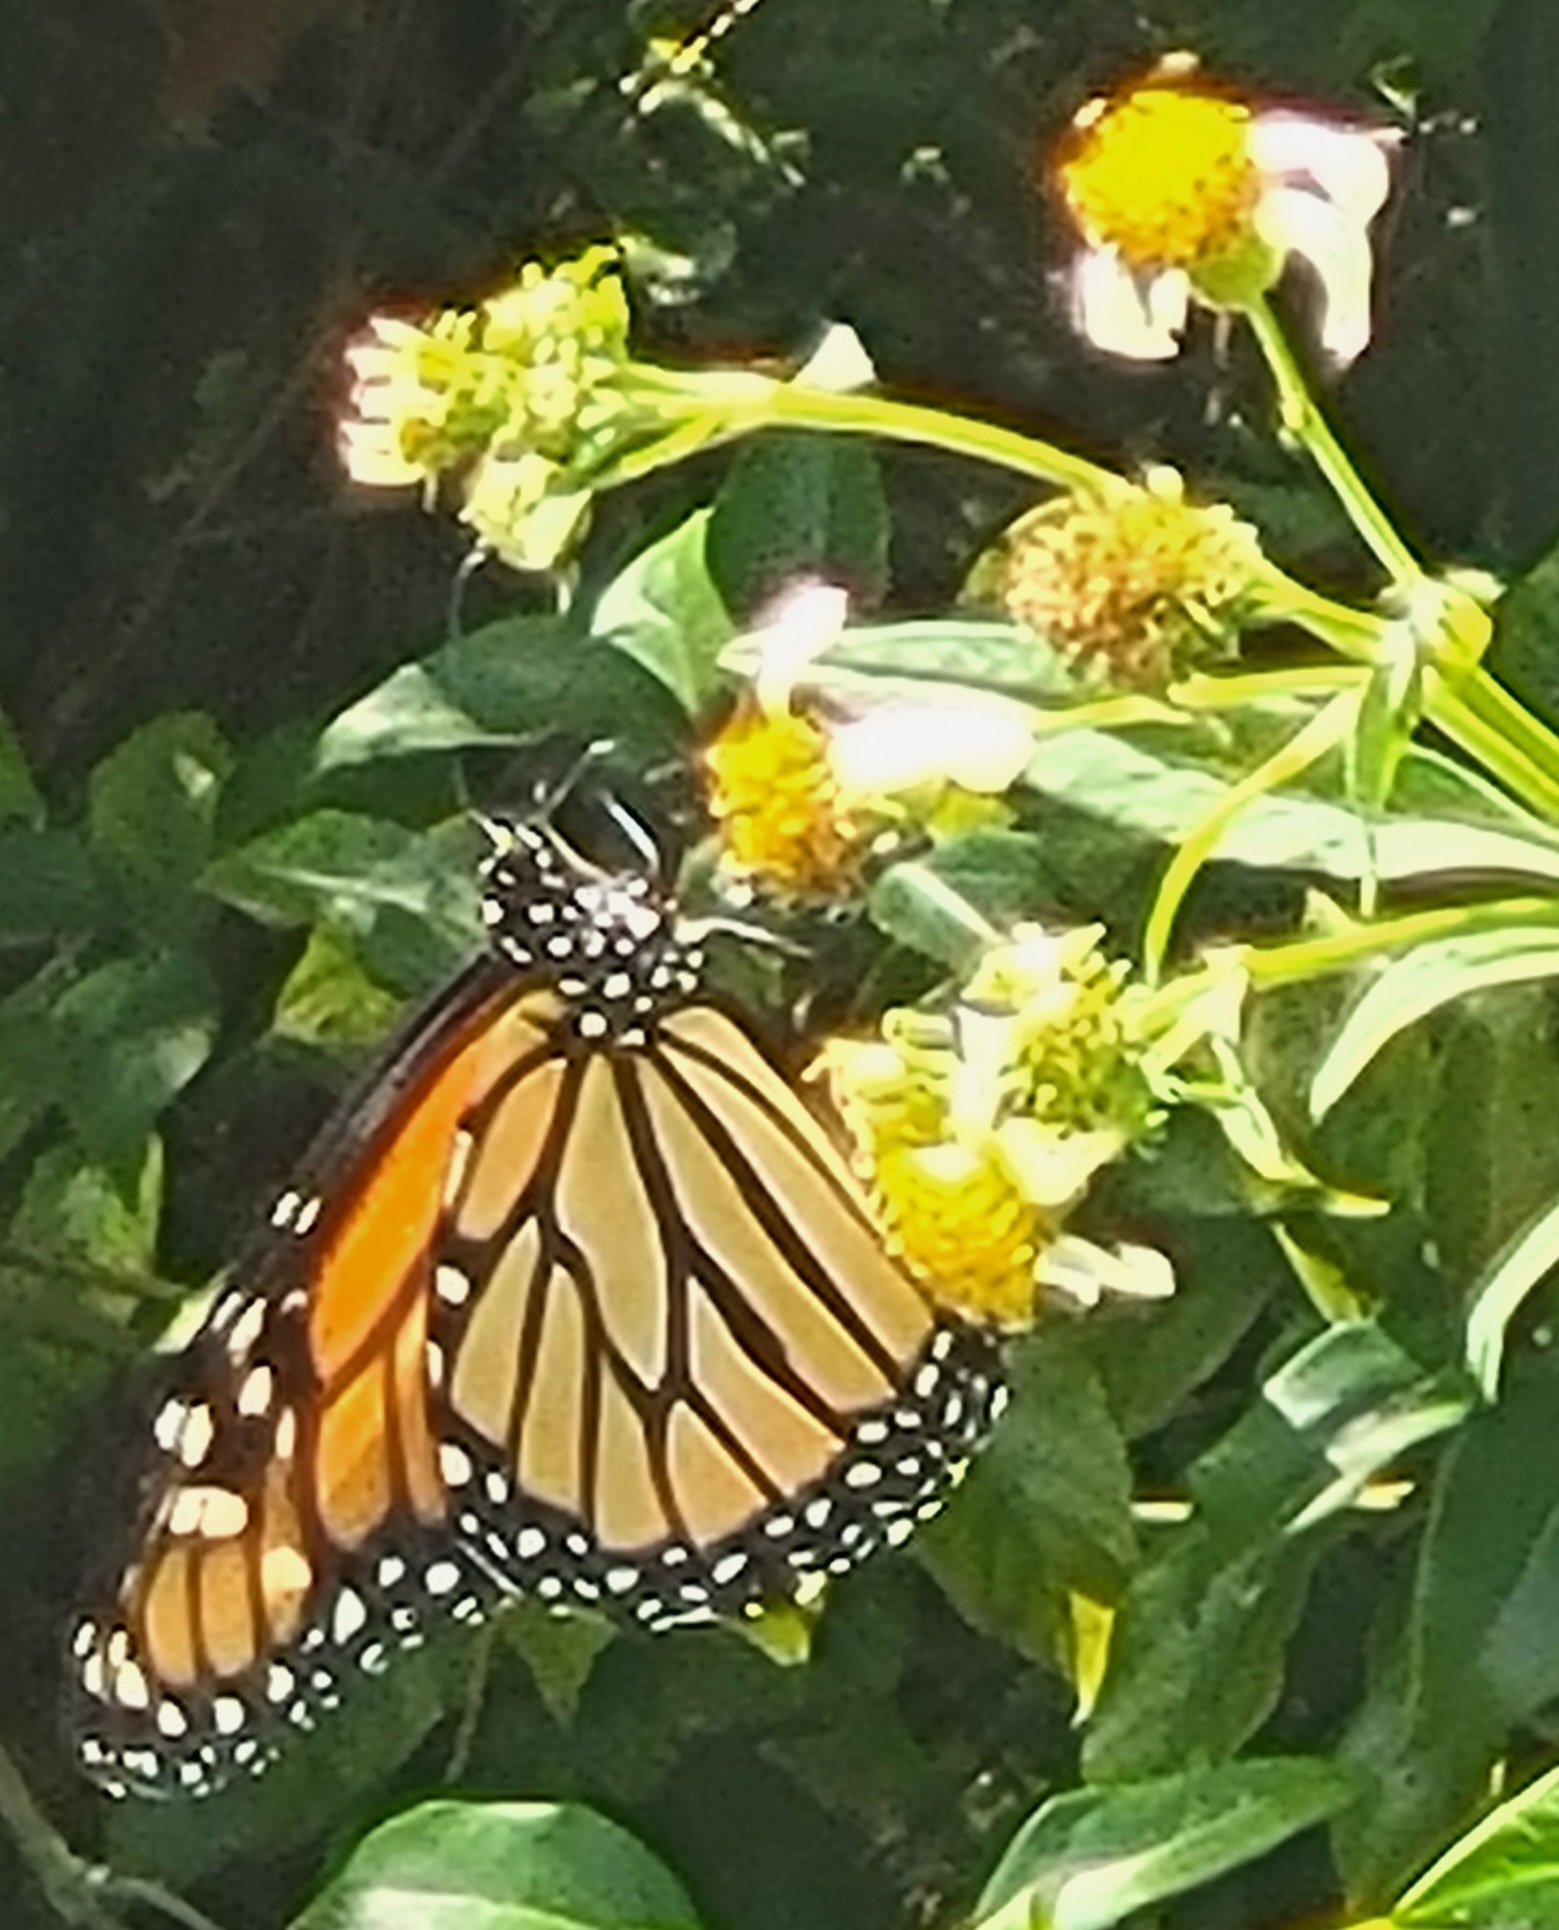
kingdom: Animalia
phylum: Arthropoda
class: Insecta
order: Lepidoptera
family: Nymphalidae
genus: Danaus
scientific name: Danaus plexippus
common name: Monarch
